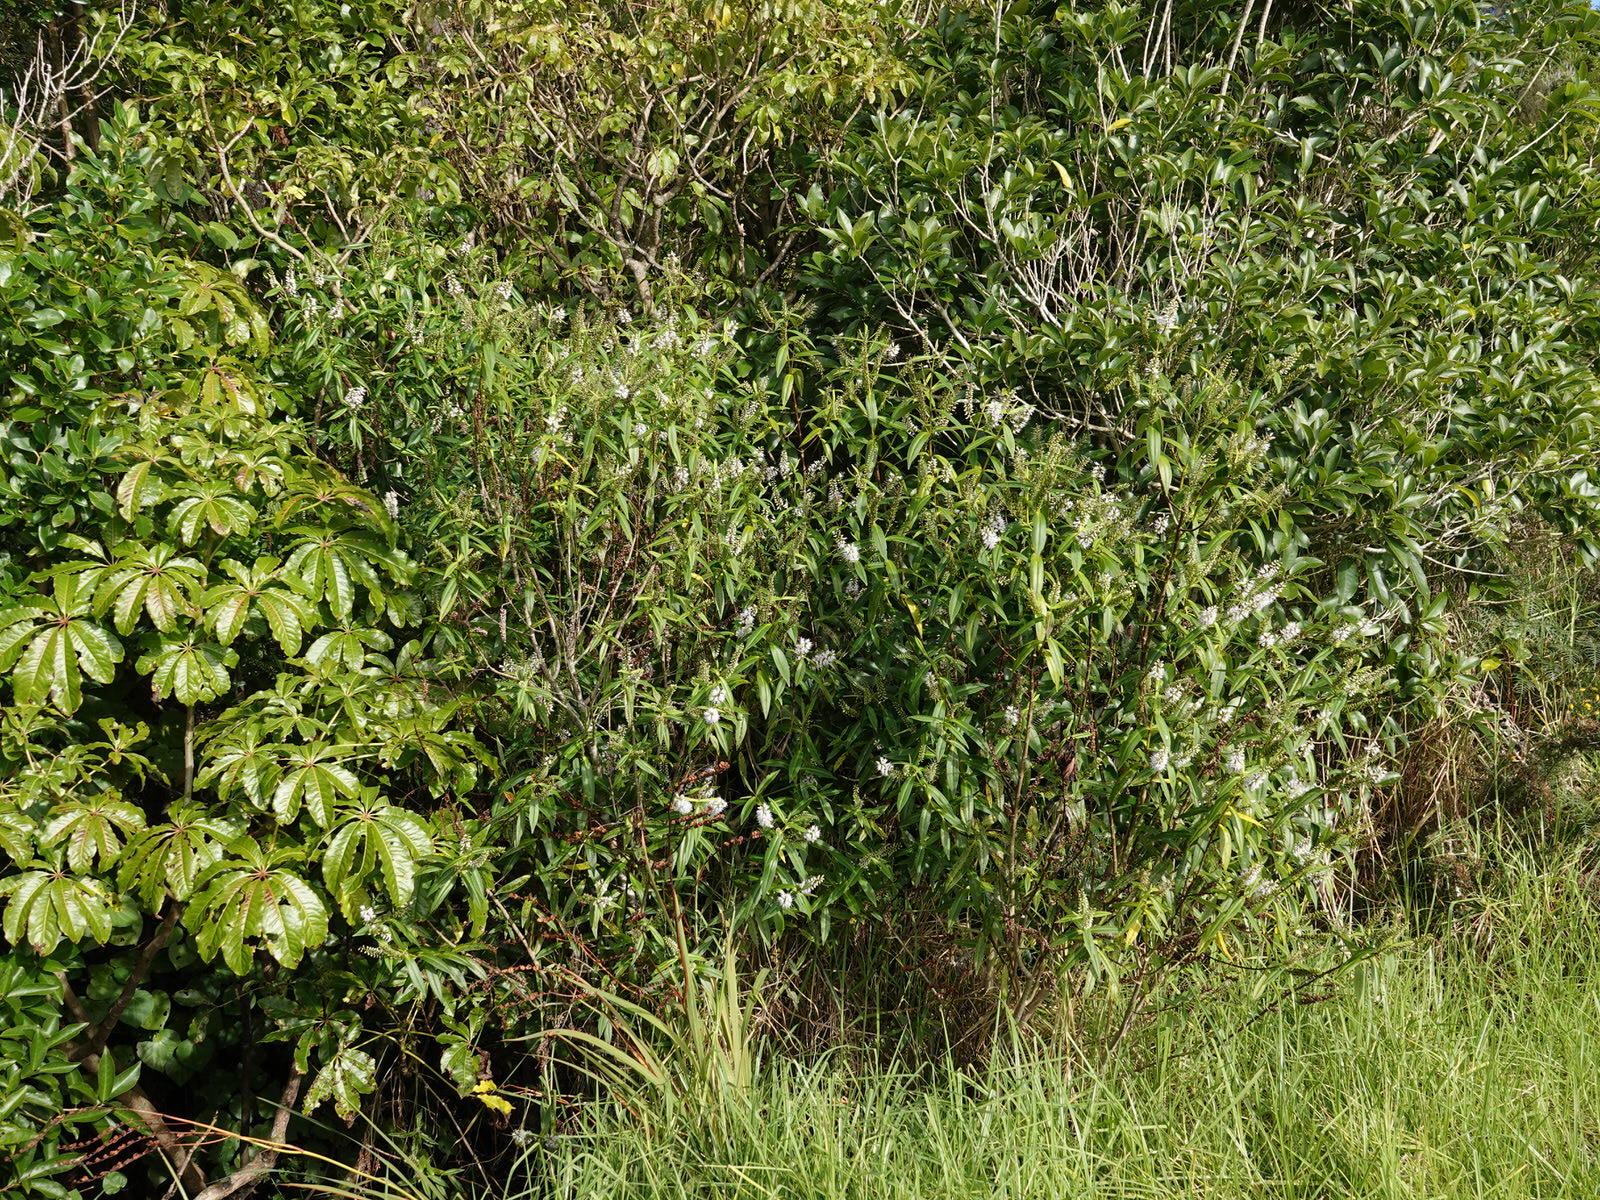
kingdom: Plantae
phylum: Tracheophyta
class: Magnoliopsida
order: Lamiales
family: Plantaginaceae
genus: Veronica
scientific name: Veronica macrocarpa
